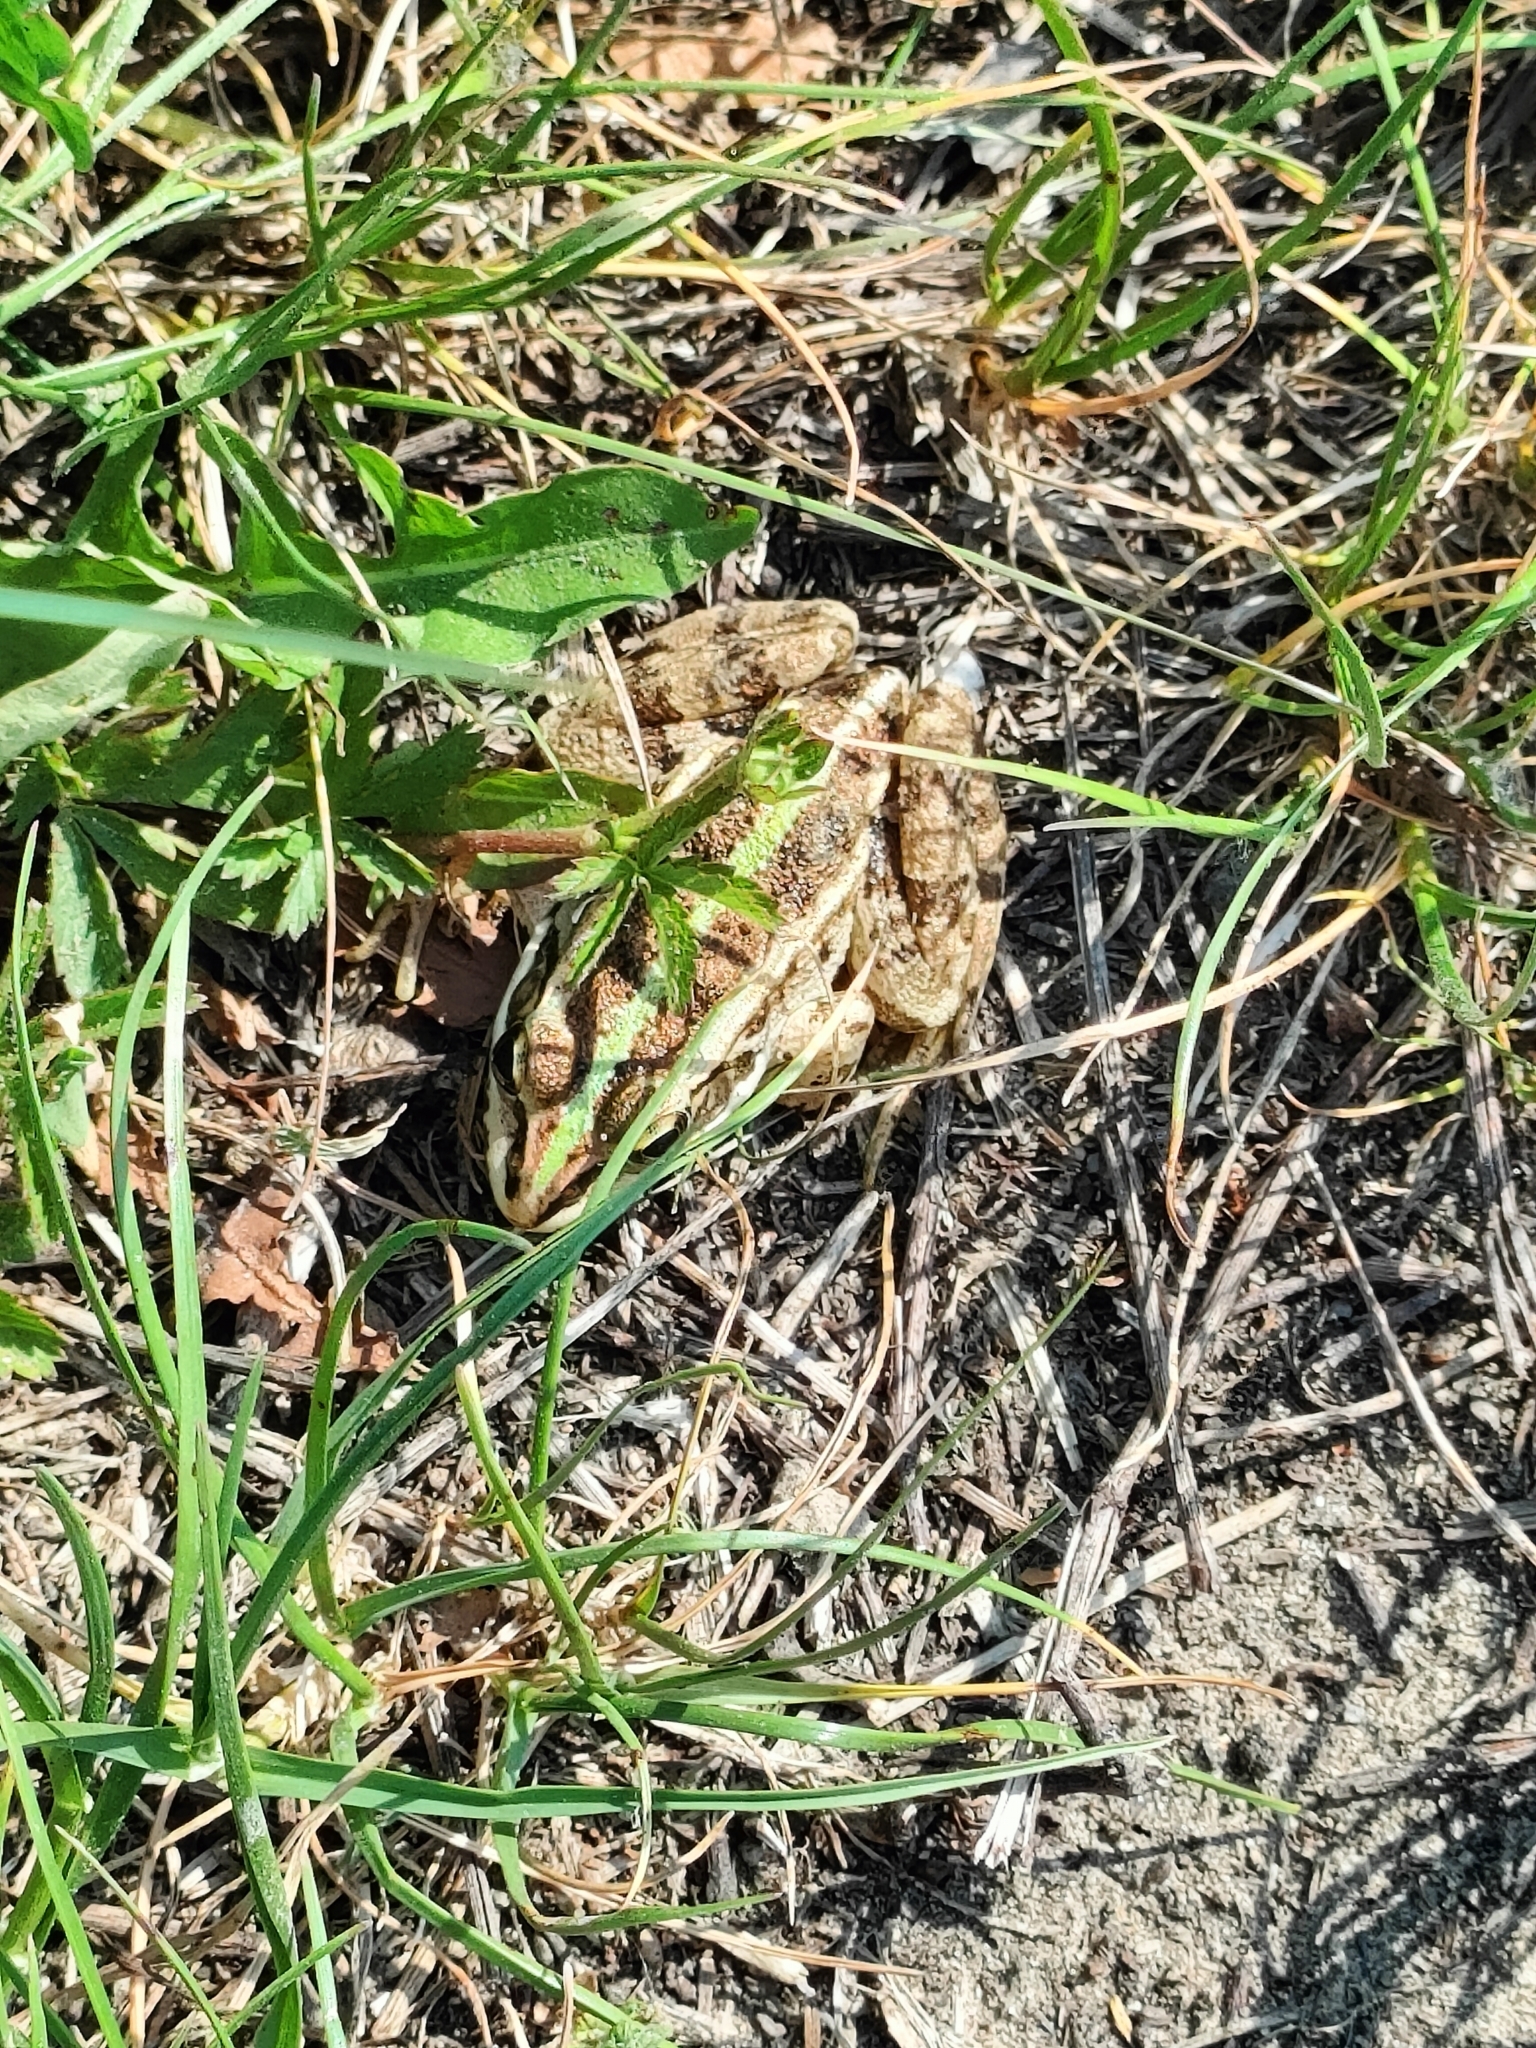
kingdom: Animalia
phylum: Chordata
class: Amphibia
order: Anura
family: Ranidae
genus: Pelophylax
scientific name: Pelophylax
